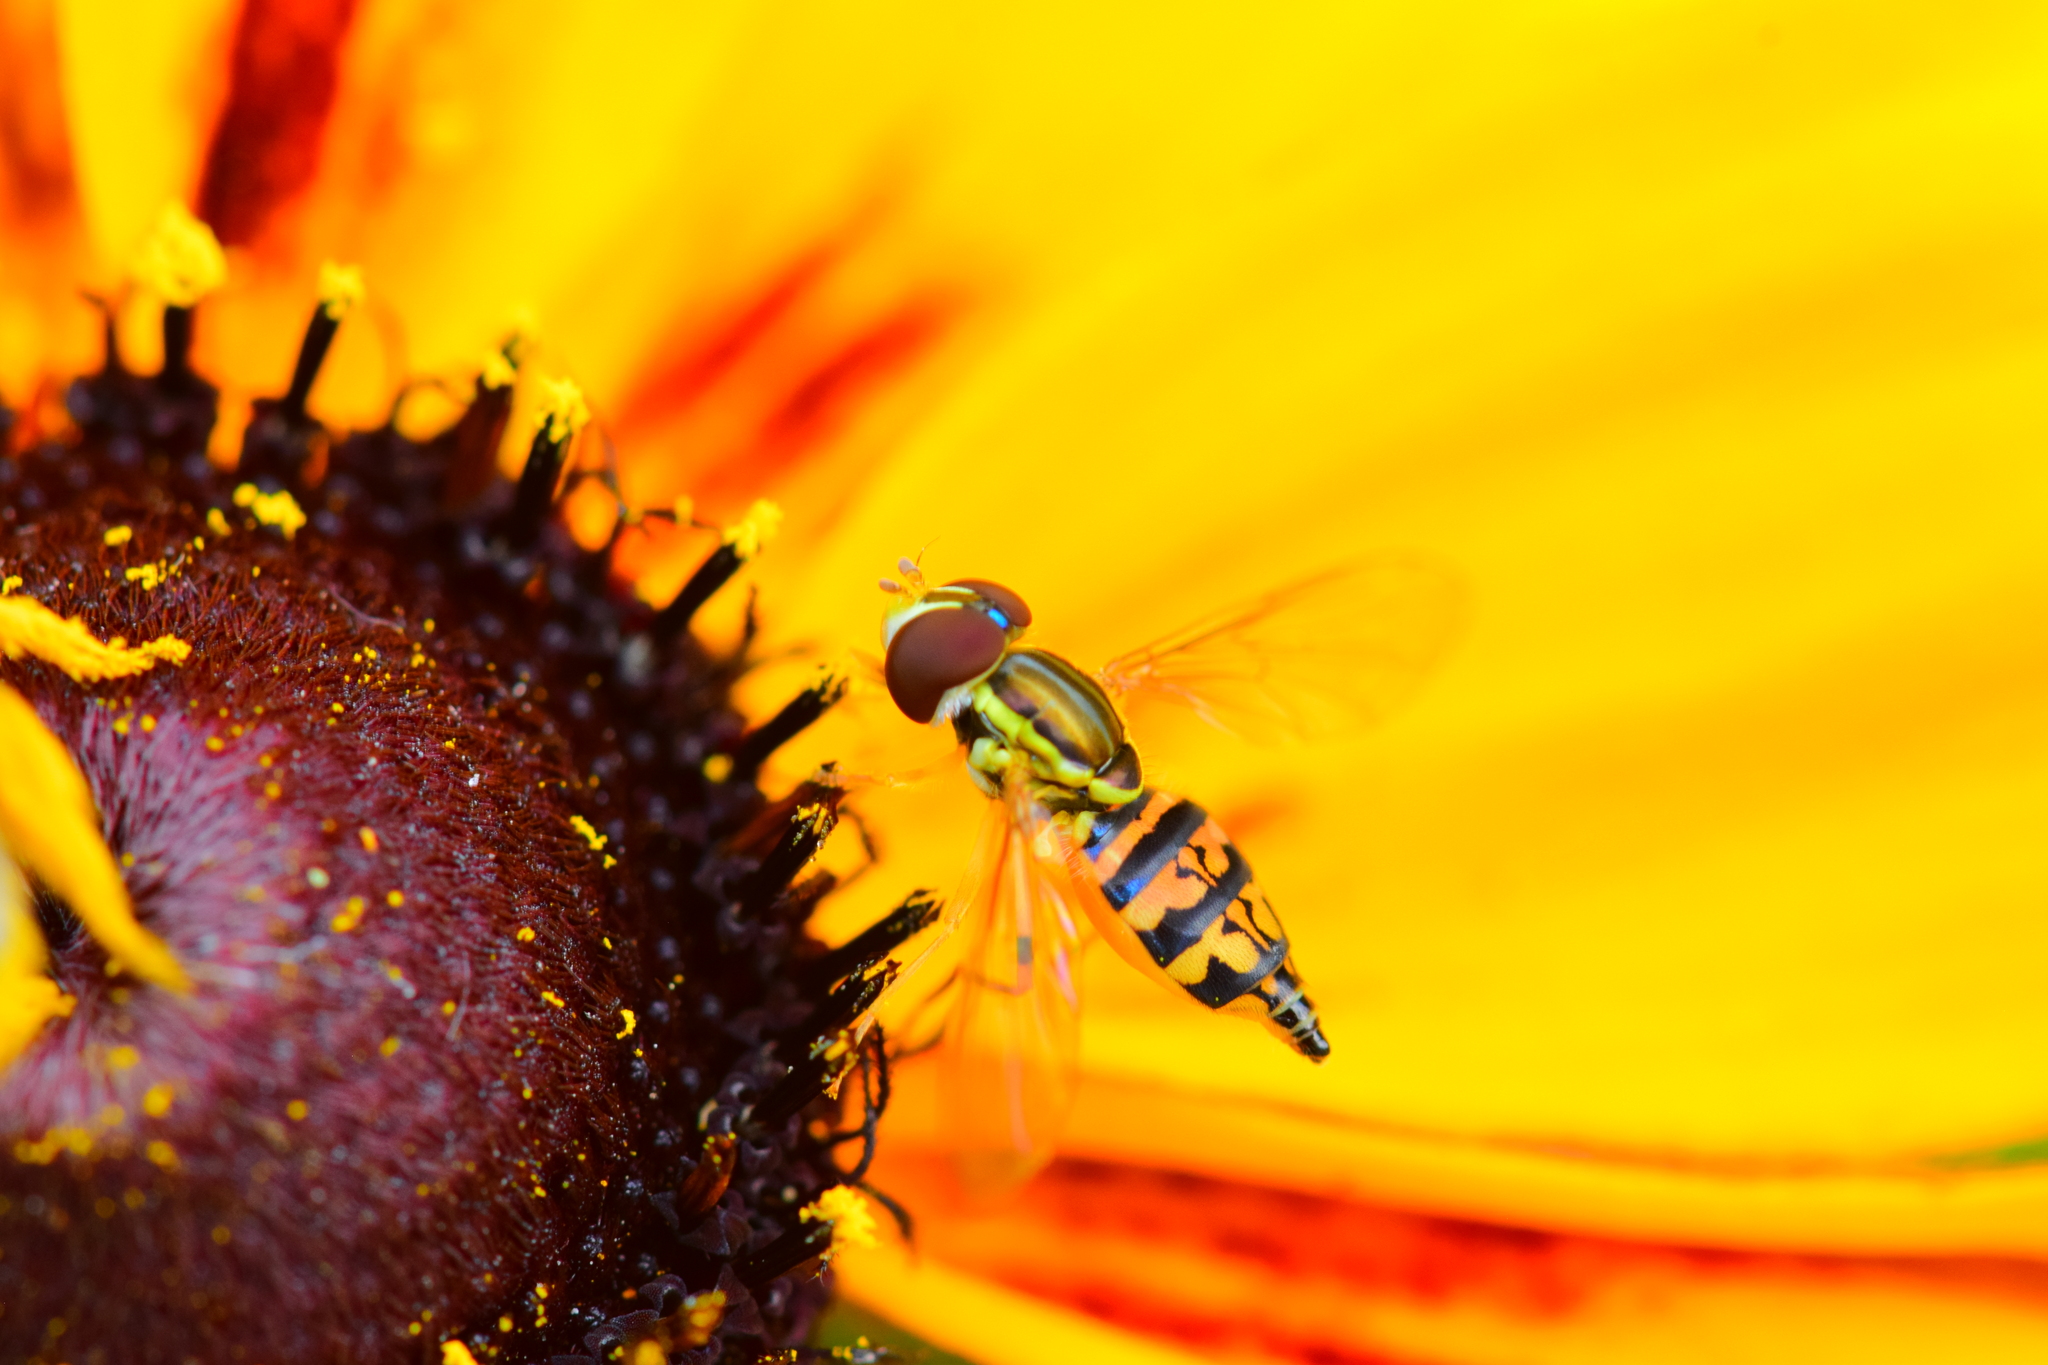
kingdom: Animalia
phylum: Arthropoda
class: Insecta
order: Diptera
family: Syrphidae
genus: Toxomerus
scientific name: Toxomerus geminatus
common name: Eastern calligrapher
